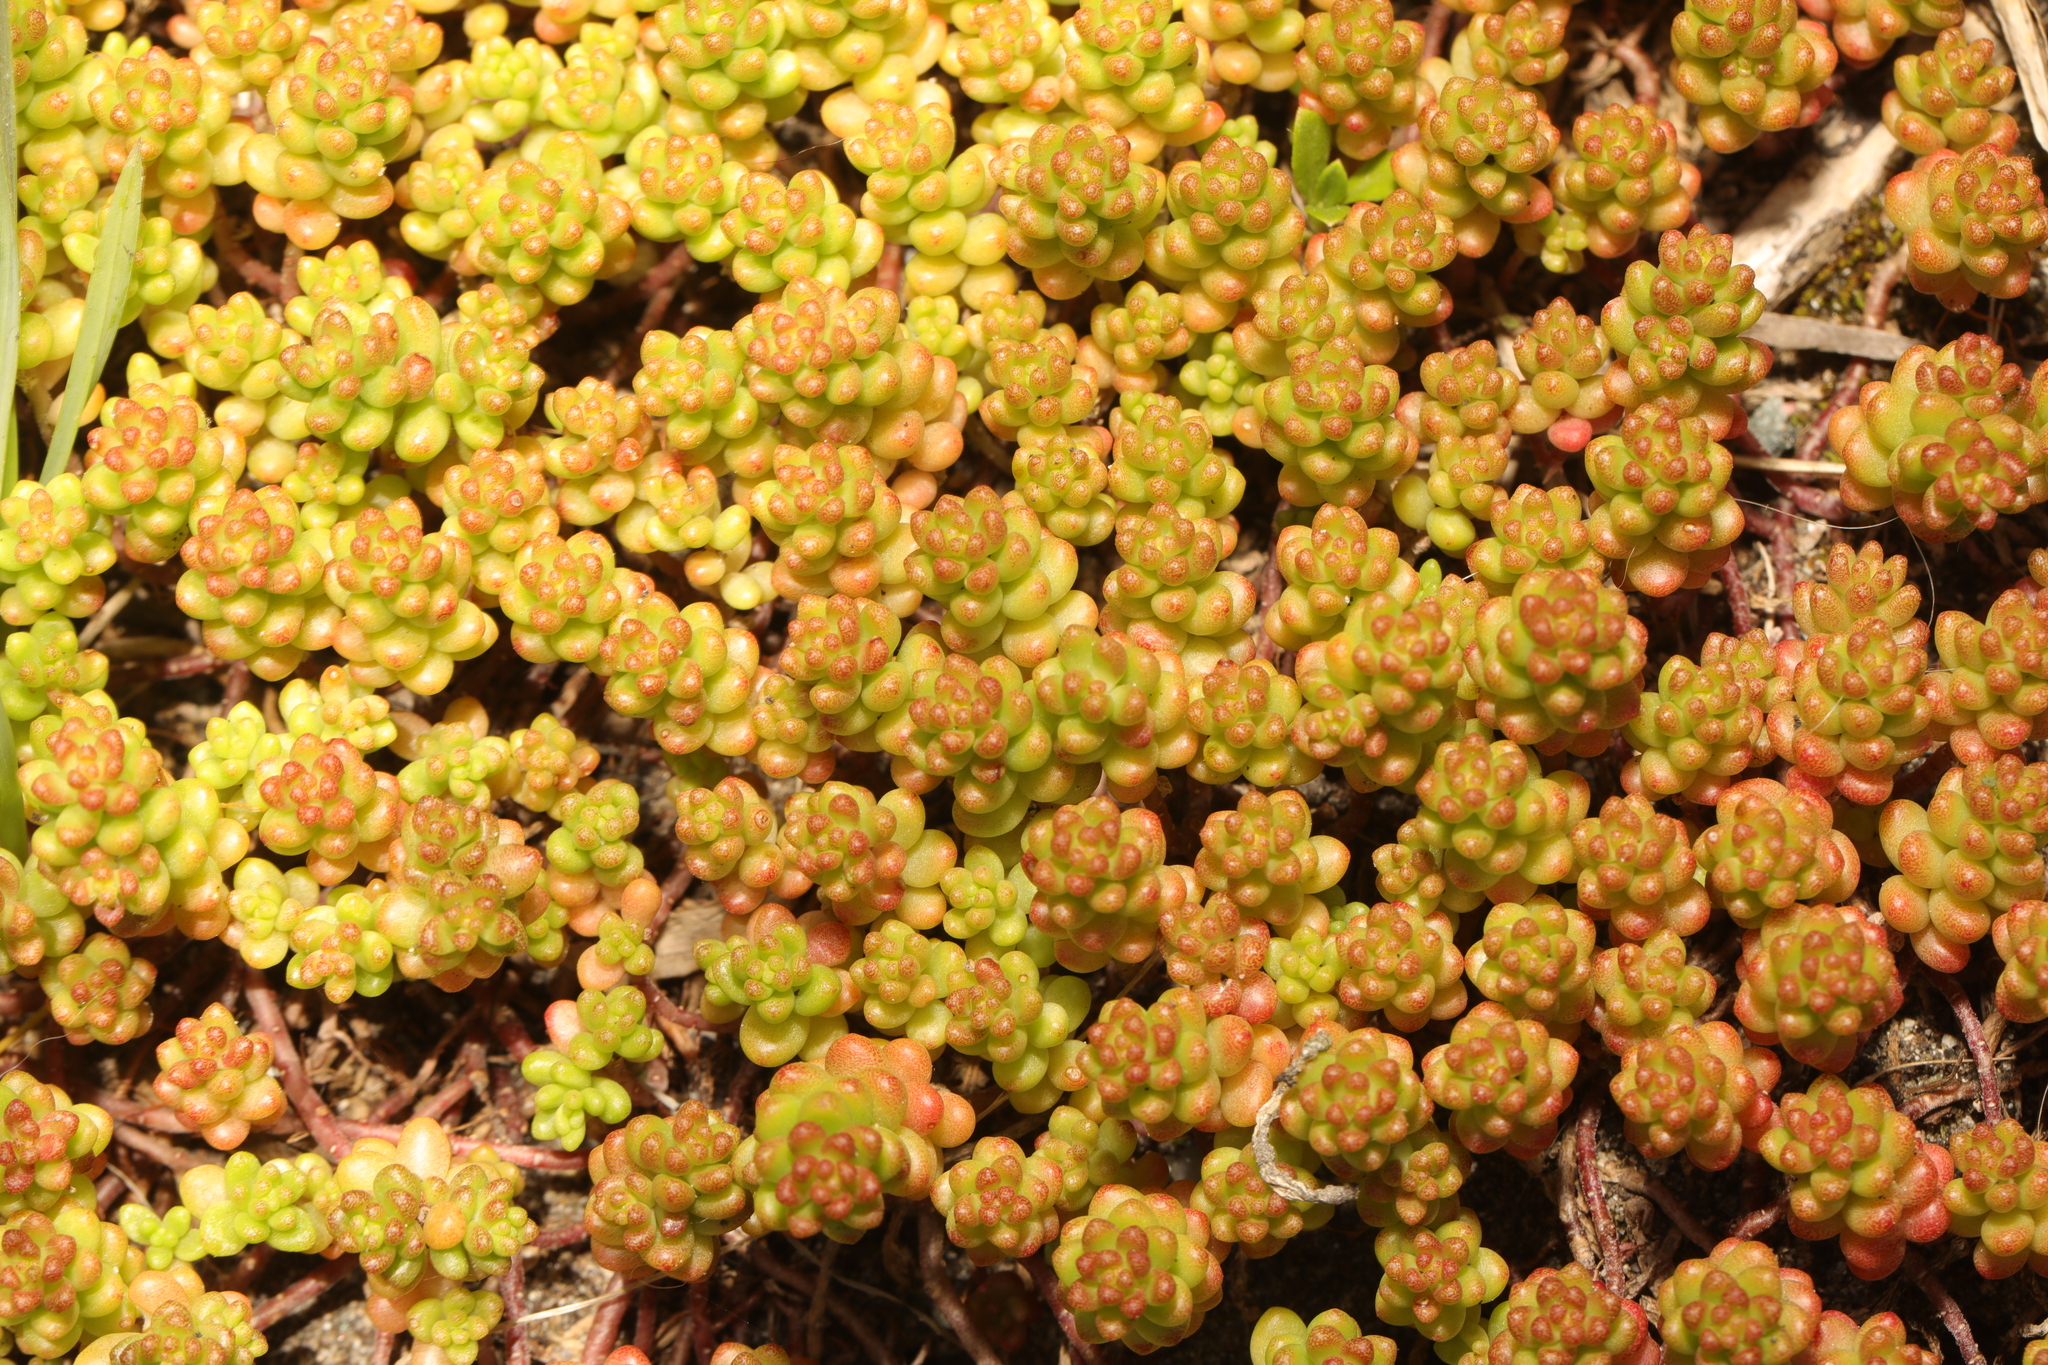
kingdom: Plantae
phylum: Tracheophyta
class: Magnoliopsida
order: Saxifragales
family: Crassulaceae
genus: Sedum
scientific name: Sedum album
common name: White stonecrop
